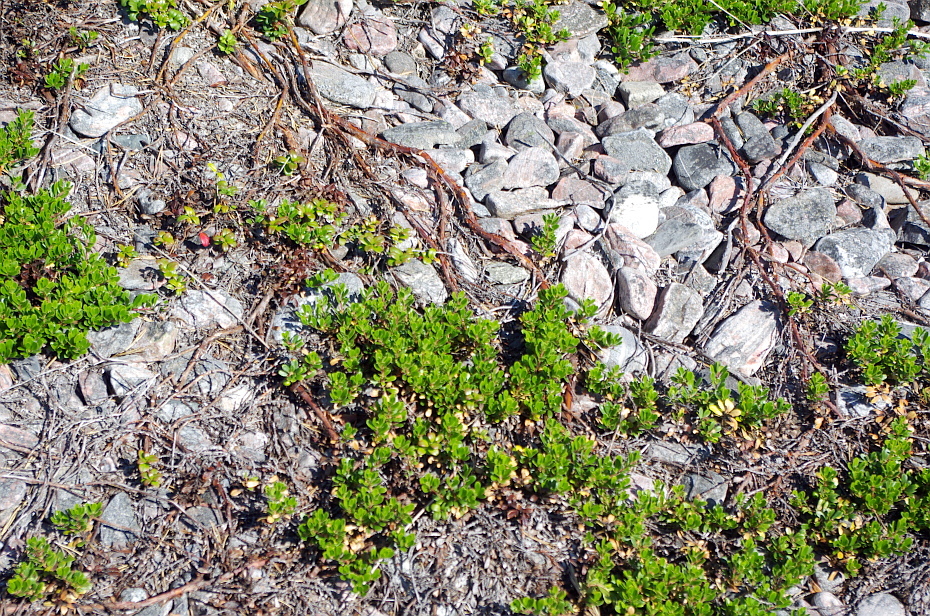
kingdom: Plantae
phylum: Tracheophyta
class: Magnoliopsida
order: Ericales
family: Ericaceae
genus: Arctostaphylos
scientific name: Arctostaphylos uva-ursi
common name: Bearberry
